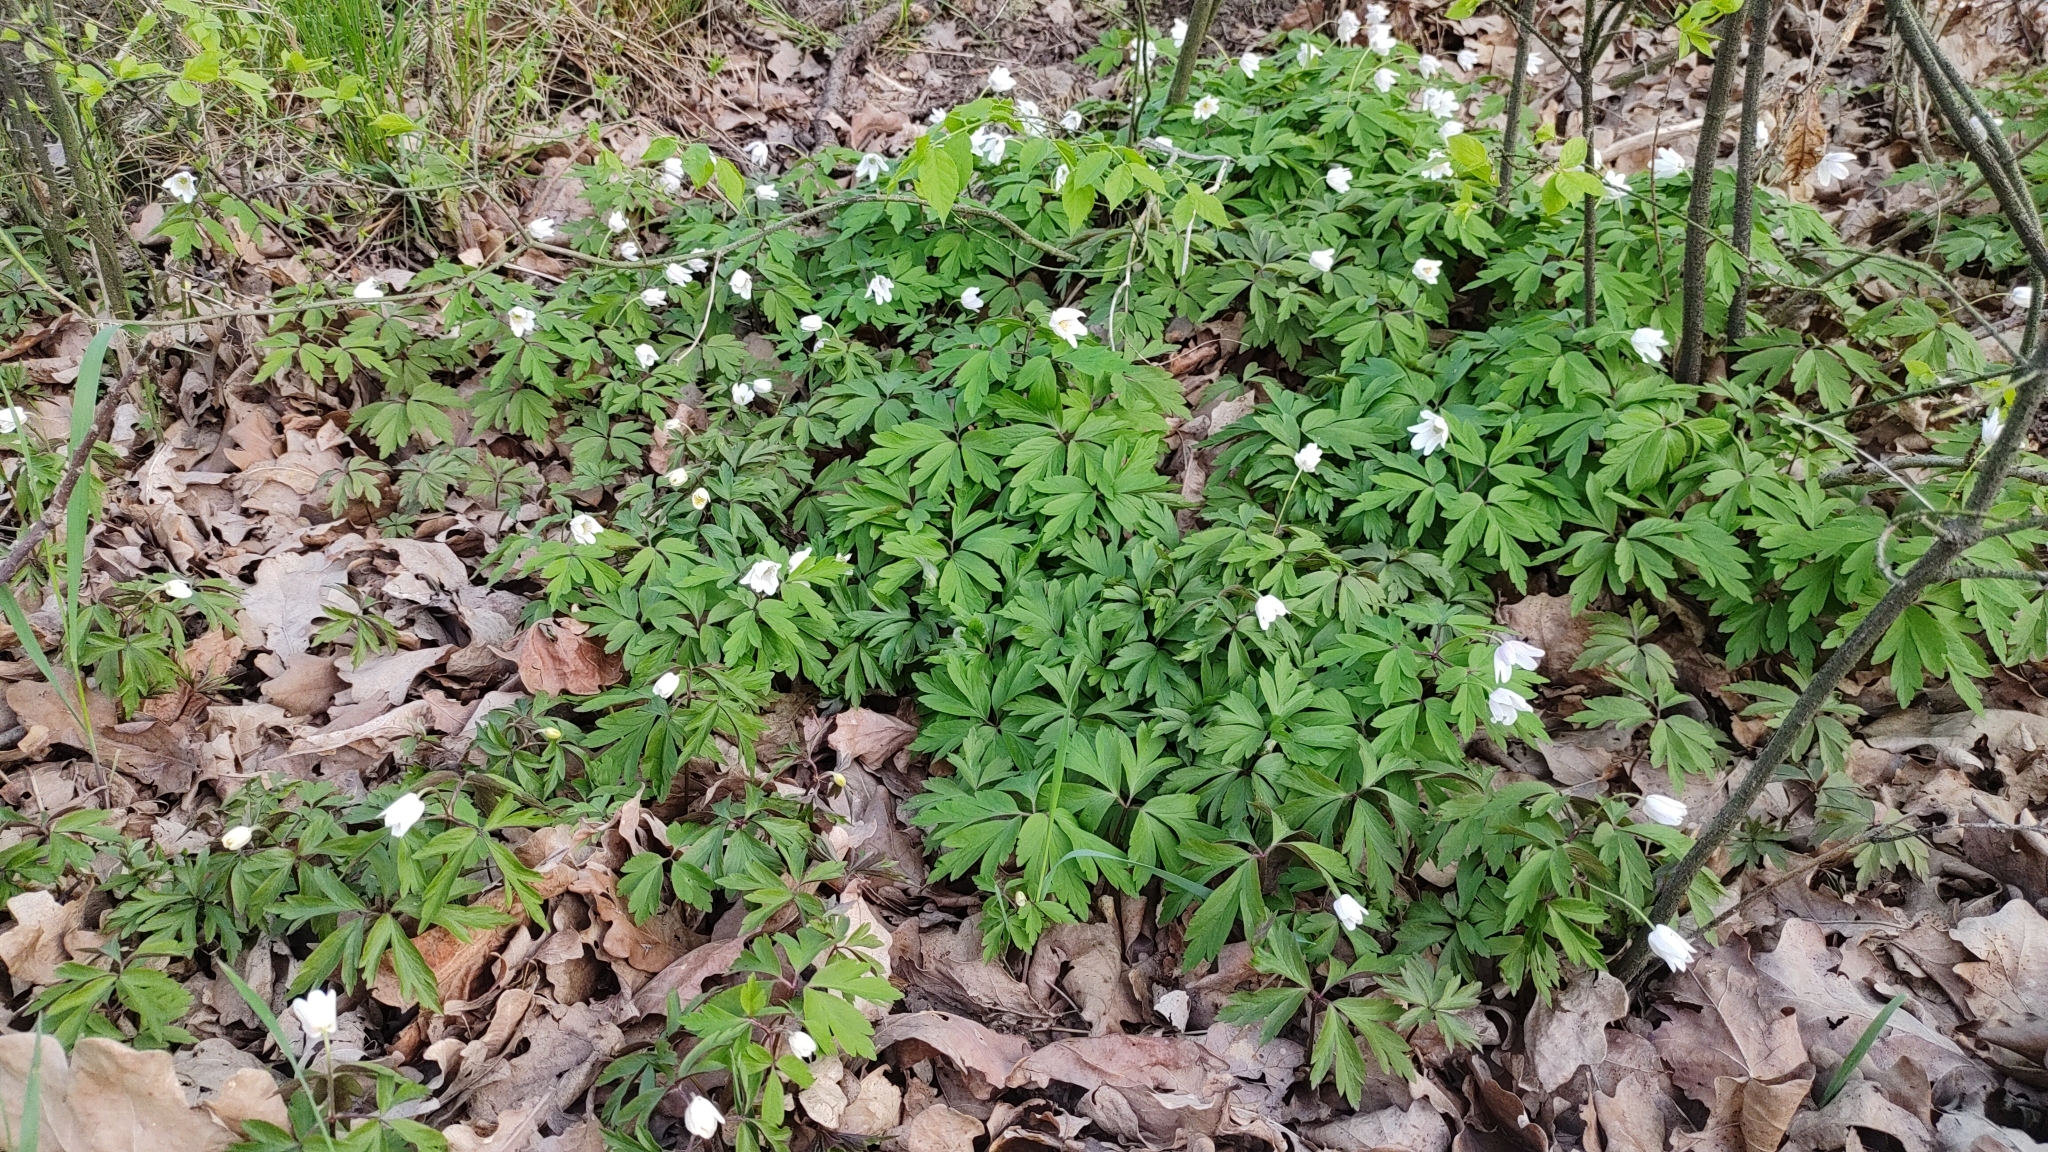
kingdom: Plantae
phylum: Tracheophyta
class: Magnoliopsida
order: Ranunculales
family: Ranunculaceae
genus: Anemone
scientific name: Anemone nemorosa
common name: Wood anemone
